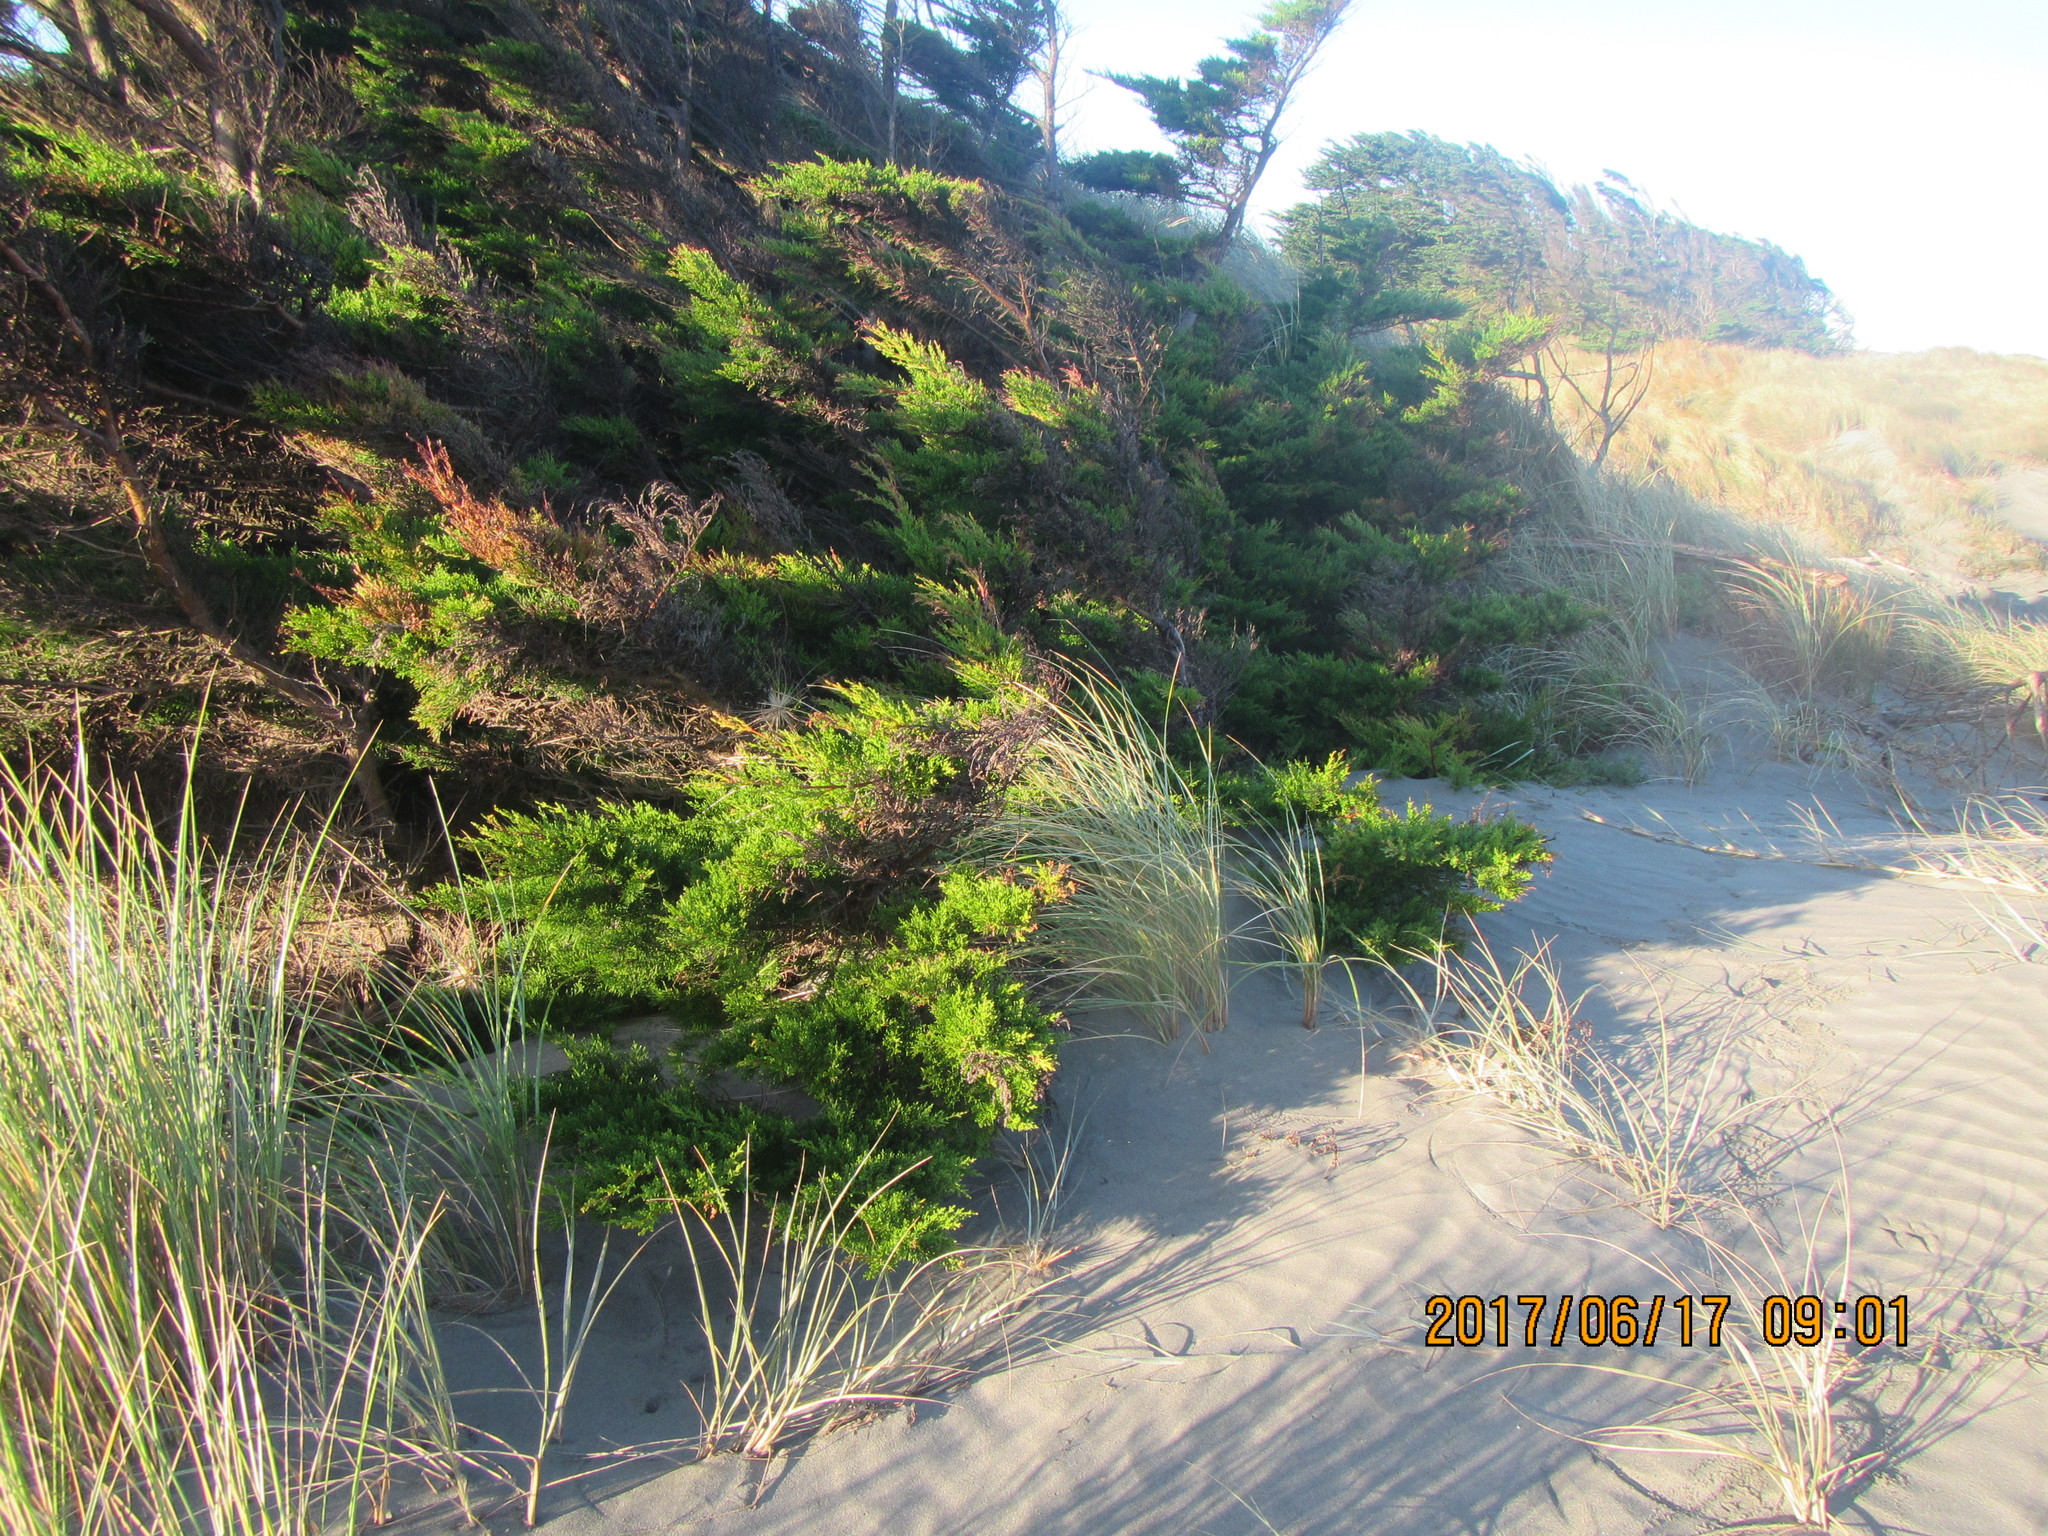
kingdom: Plantae
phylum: Tracheophyta
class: Pinopsida
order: Pinales
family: Cupressaceae
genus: Cupressus
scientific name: Cupressus macrocarpa
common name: Monterey cypress
